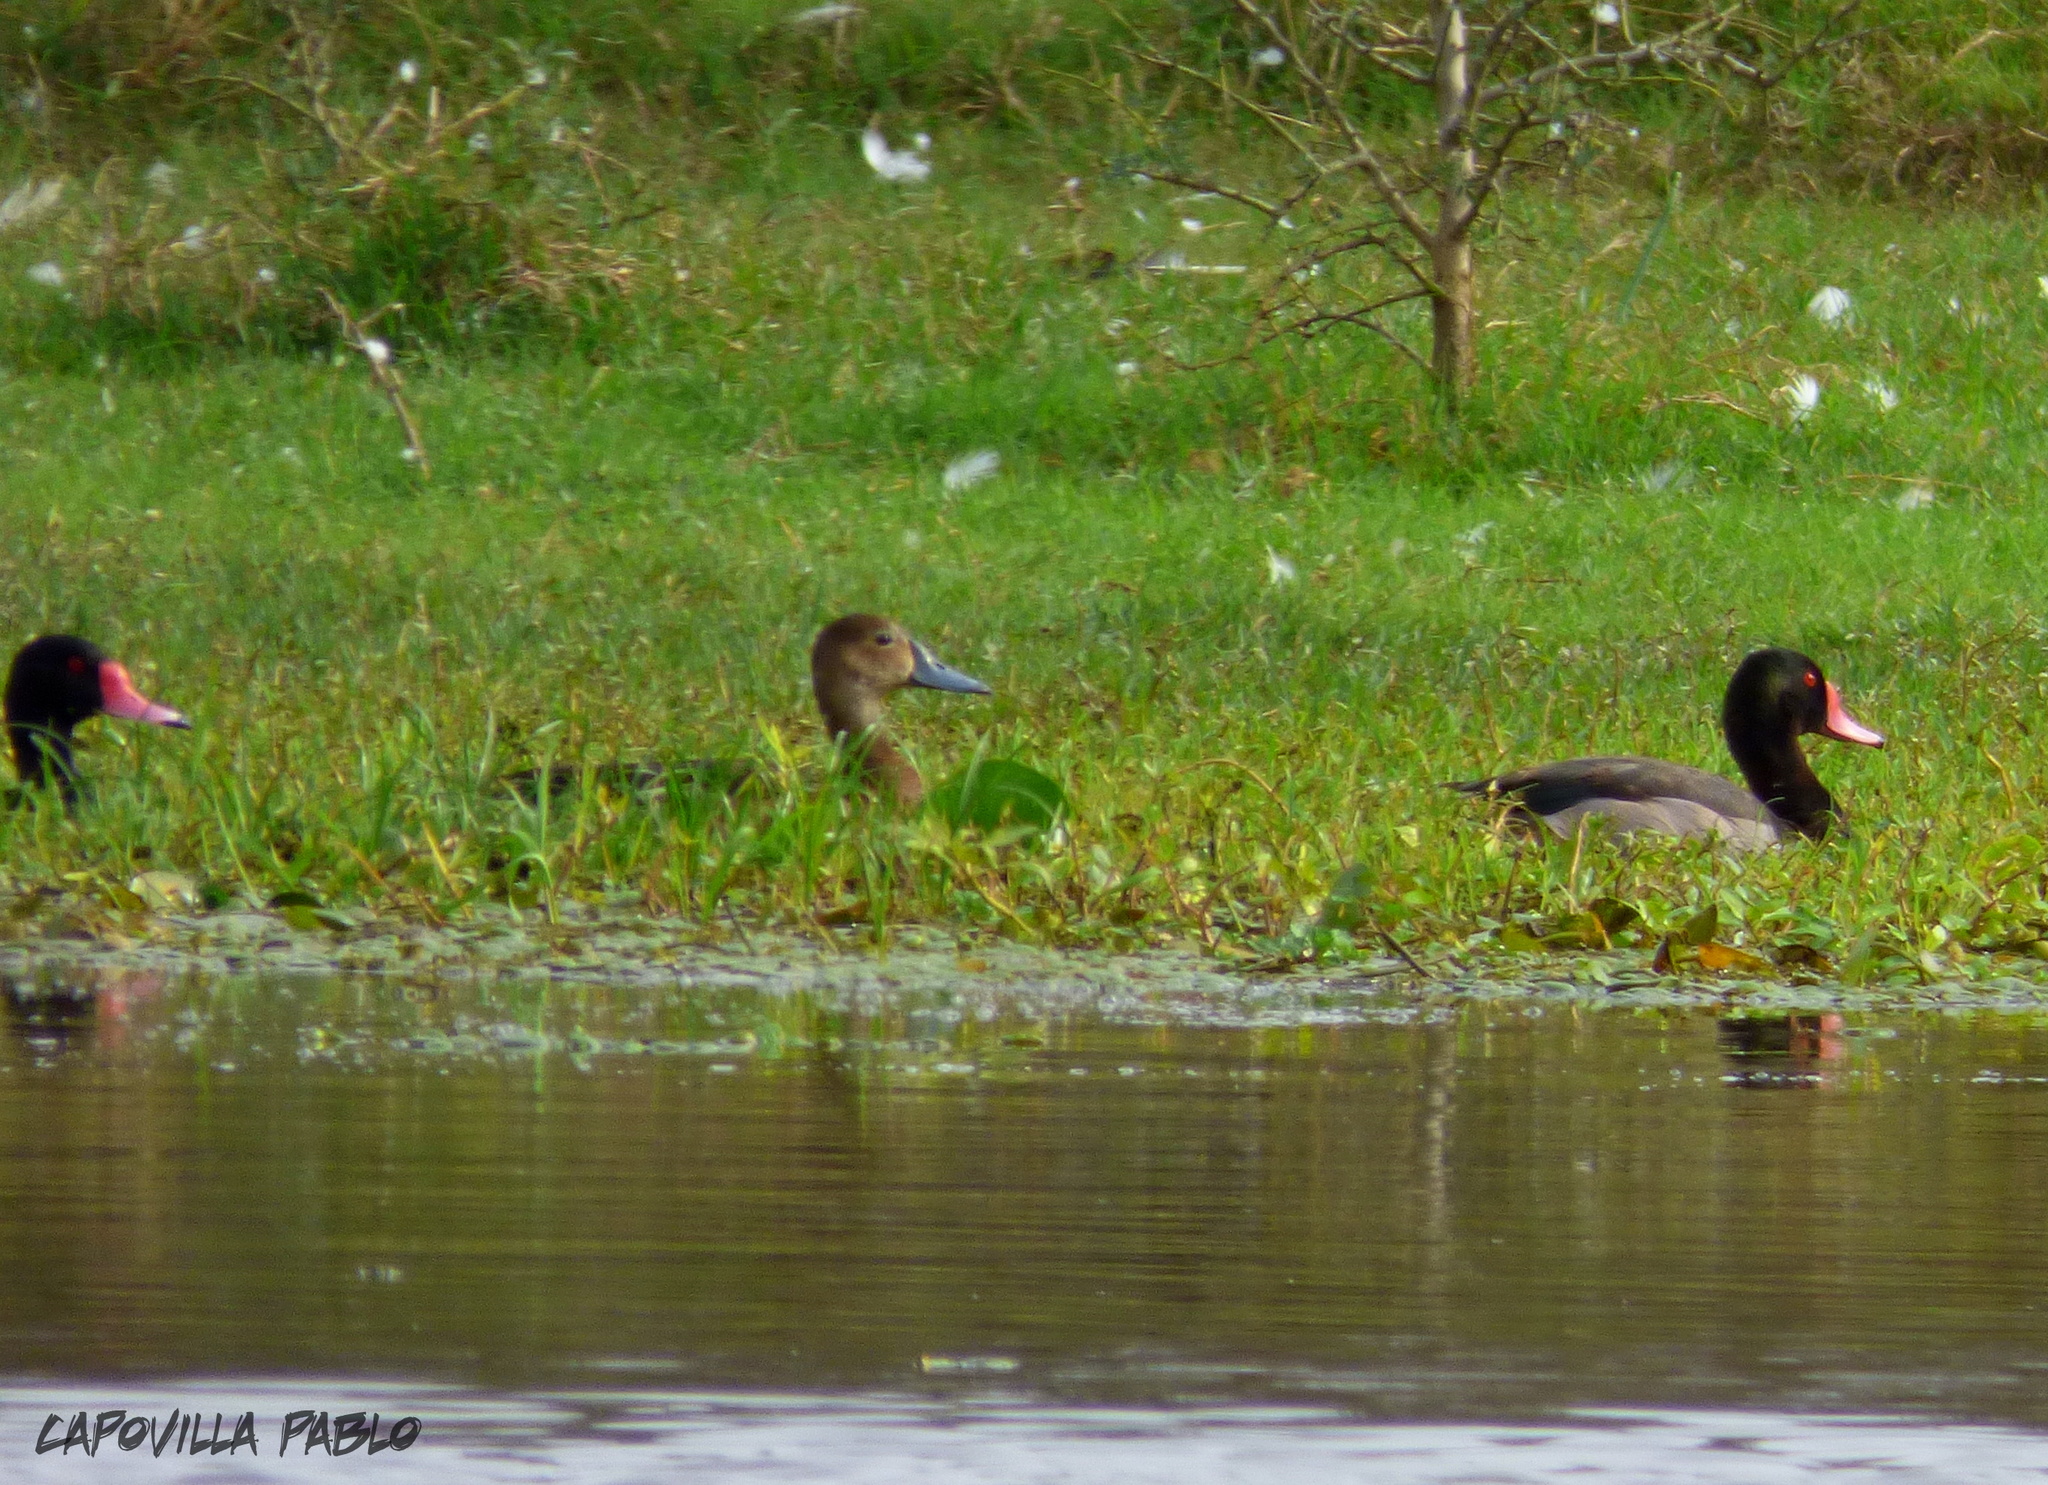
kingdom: Animalia
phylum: Chordata
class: Aves
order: Anseriformes
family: Anatidae
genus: Netta
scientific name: Netta peposaca
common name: Rosy-billed pochard
